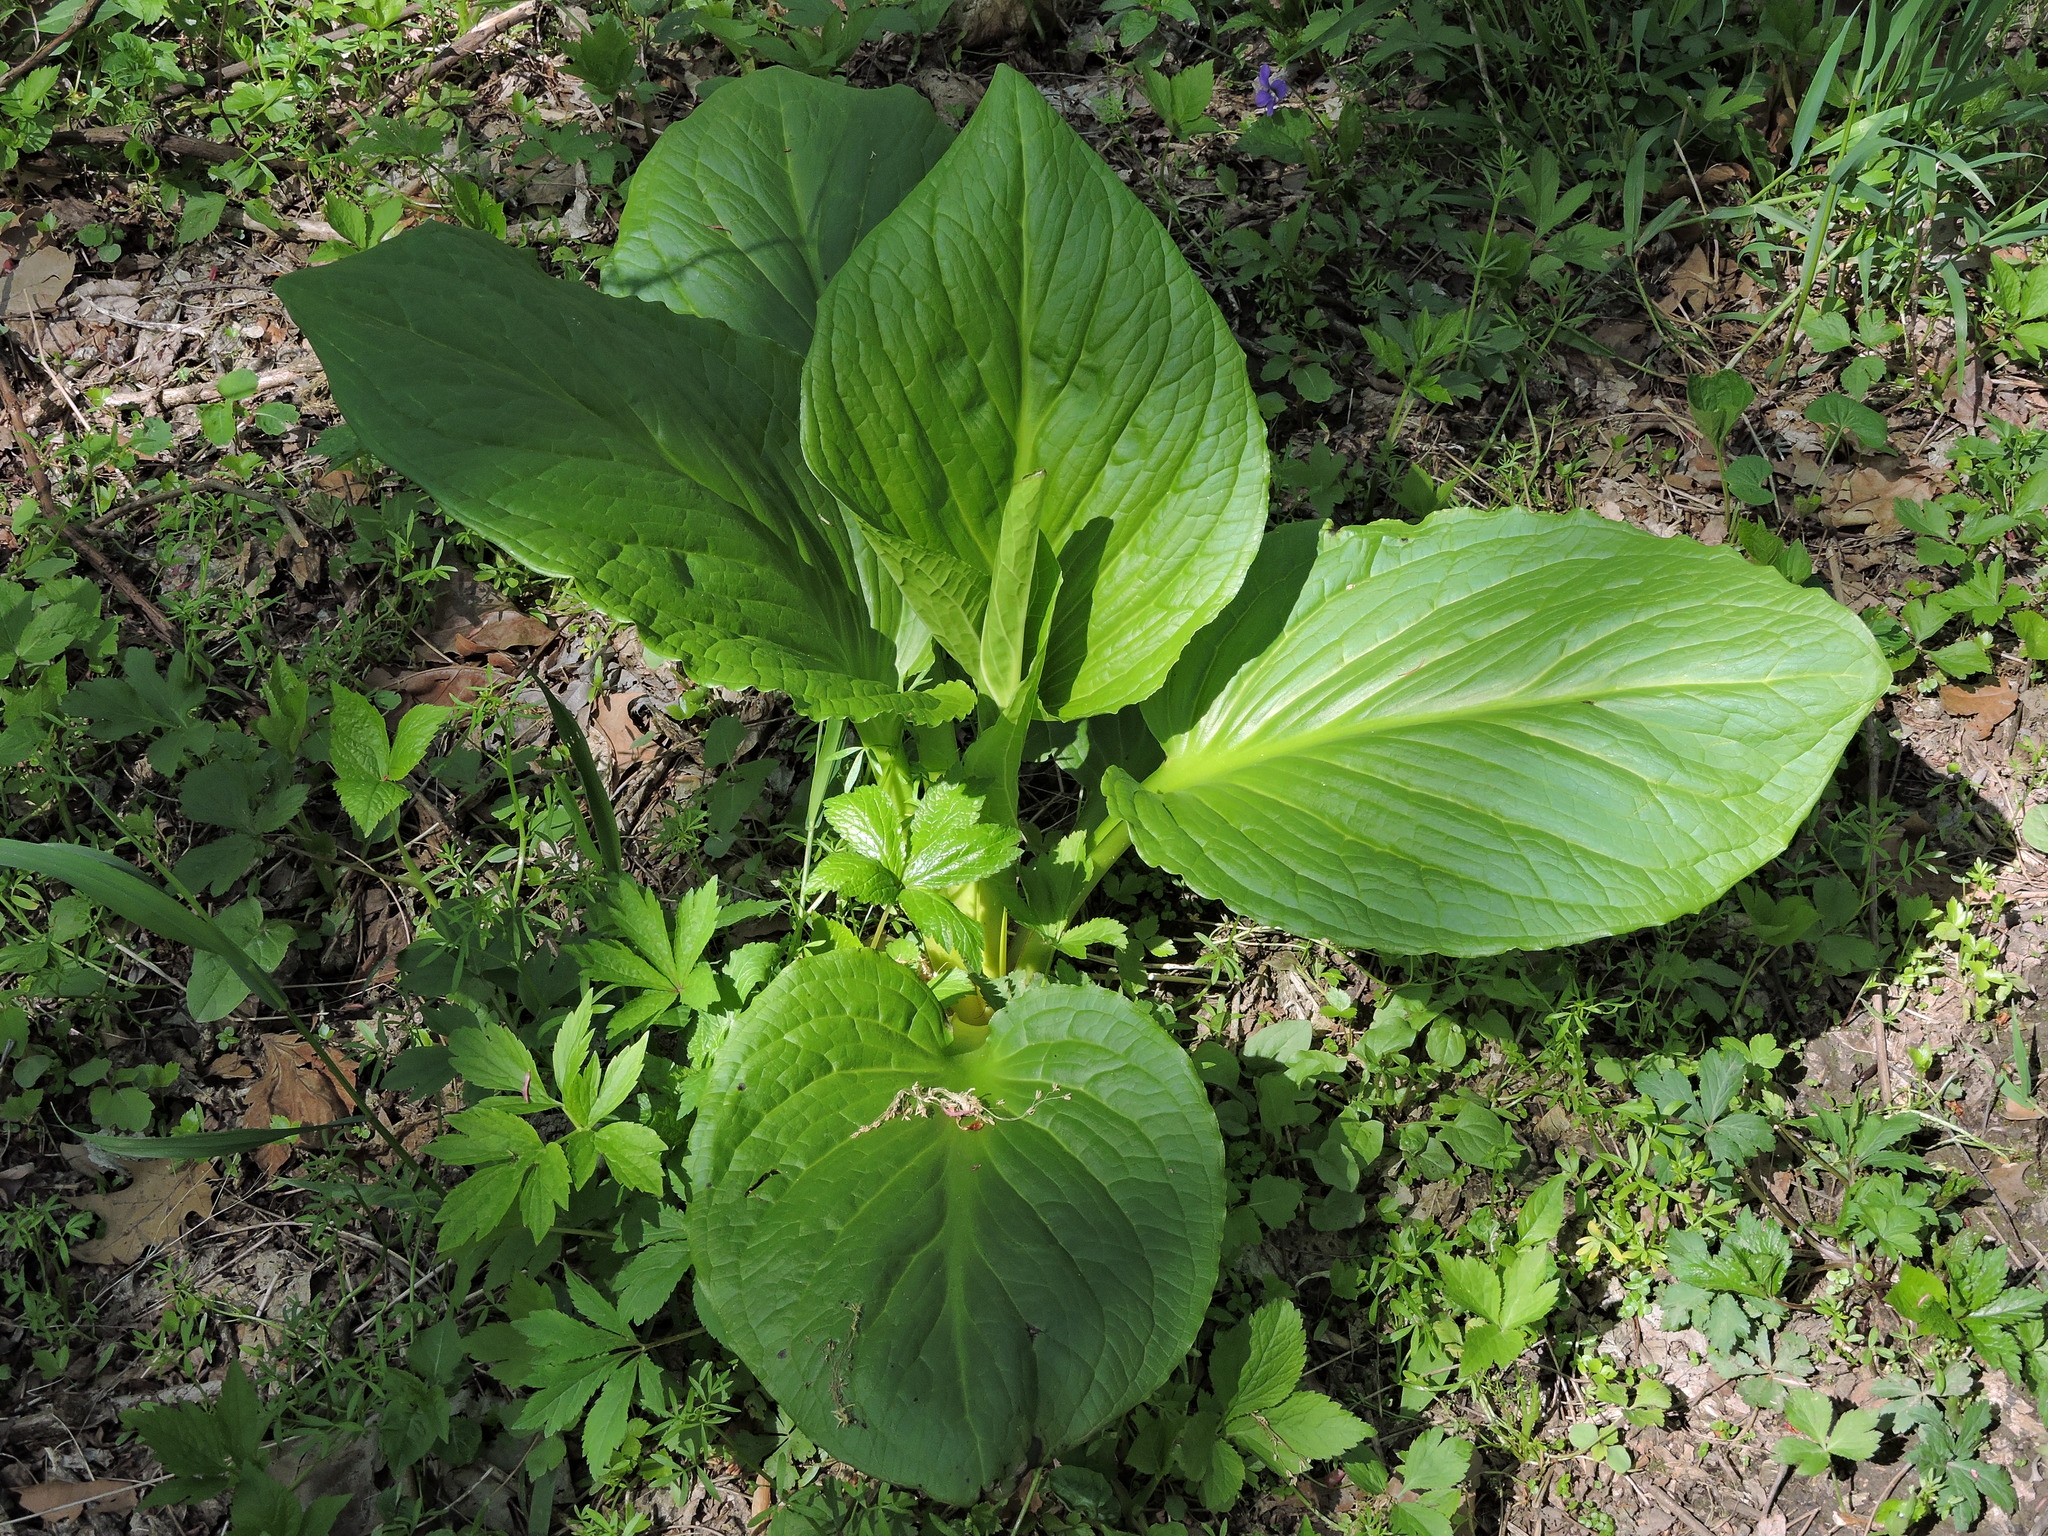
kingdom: Plantae
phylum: Tracheophyta
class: Liliopsida
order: Alismatales
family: Araceae
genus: Symplocarpus
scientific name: Symplocarpus foetidus
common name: Eastern skunk cabbage
